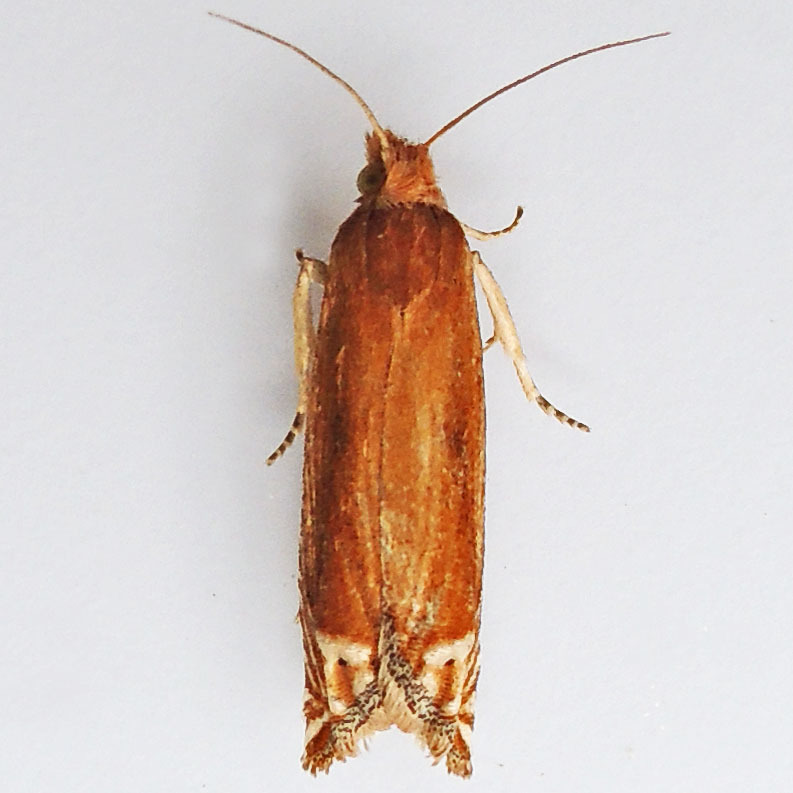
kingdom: Animalia
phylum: Arthropoda
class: Insecta
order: Lepidoptera
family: Tortricidae
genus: Pelochrista
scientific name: Pelochrista cataclystiana
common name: Goldenrod pelochrista moth
